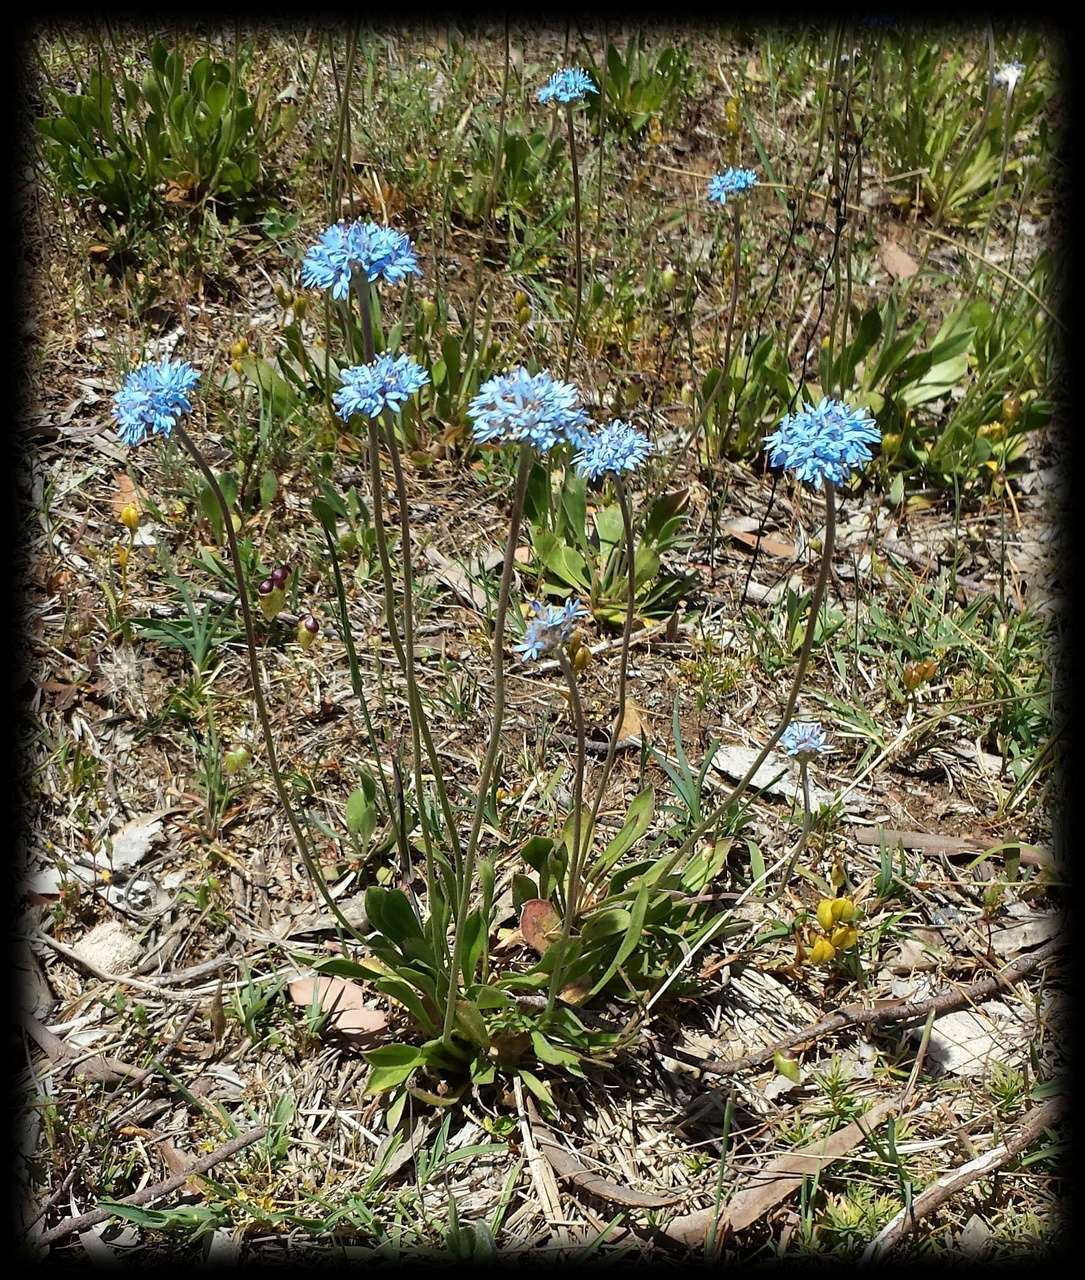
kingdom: Plantae
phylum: Tracheophyta
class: Magnoliopsida
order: Asterales
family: Goodeniaceae
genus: Brunonia
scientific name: Brunonia australis
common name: Blue pincushion
